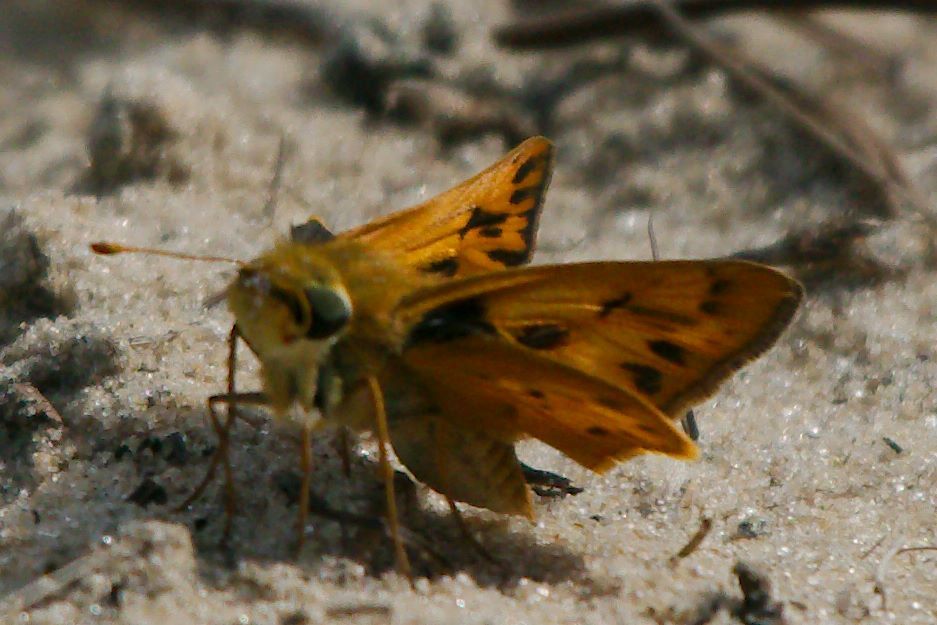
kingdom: Animalia
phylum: Arthropoda
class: Insecta
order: Lepidoptera
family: Hesperiidae
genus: Hylephila
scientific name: Hylephila phyleus
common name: Fiery skipper
